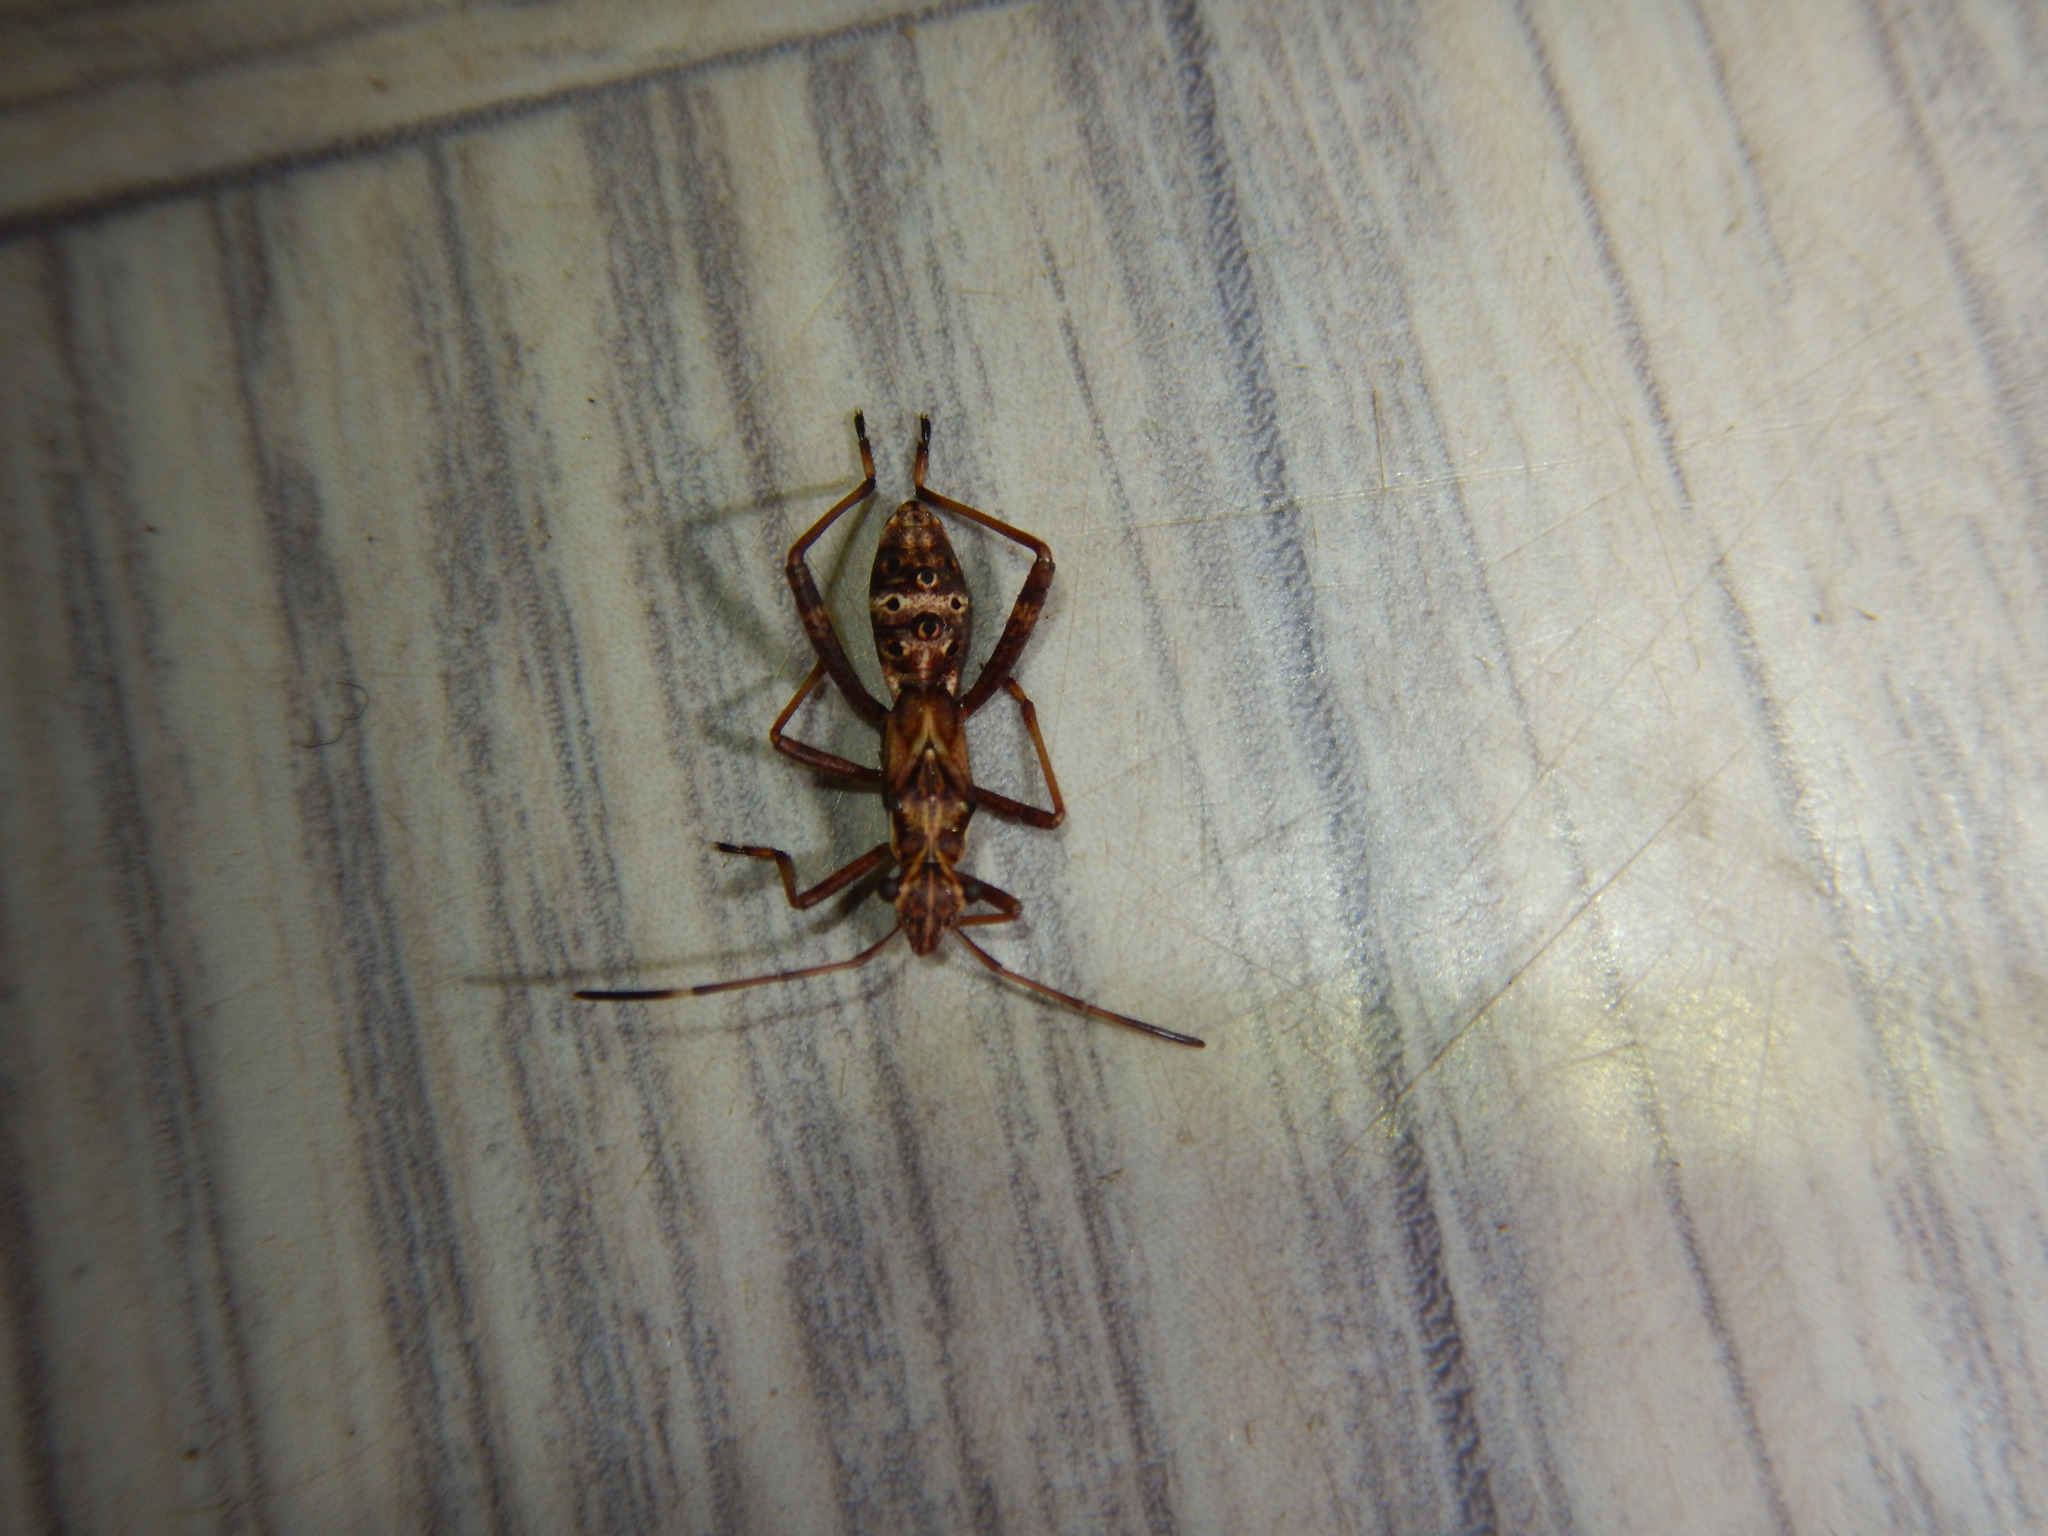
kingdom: Animalia
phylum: Arthropoda
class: Insecta
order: Hemiptera
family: Alydidae
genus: Camptopus
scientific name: Camptopus lateralis
